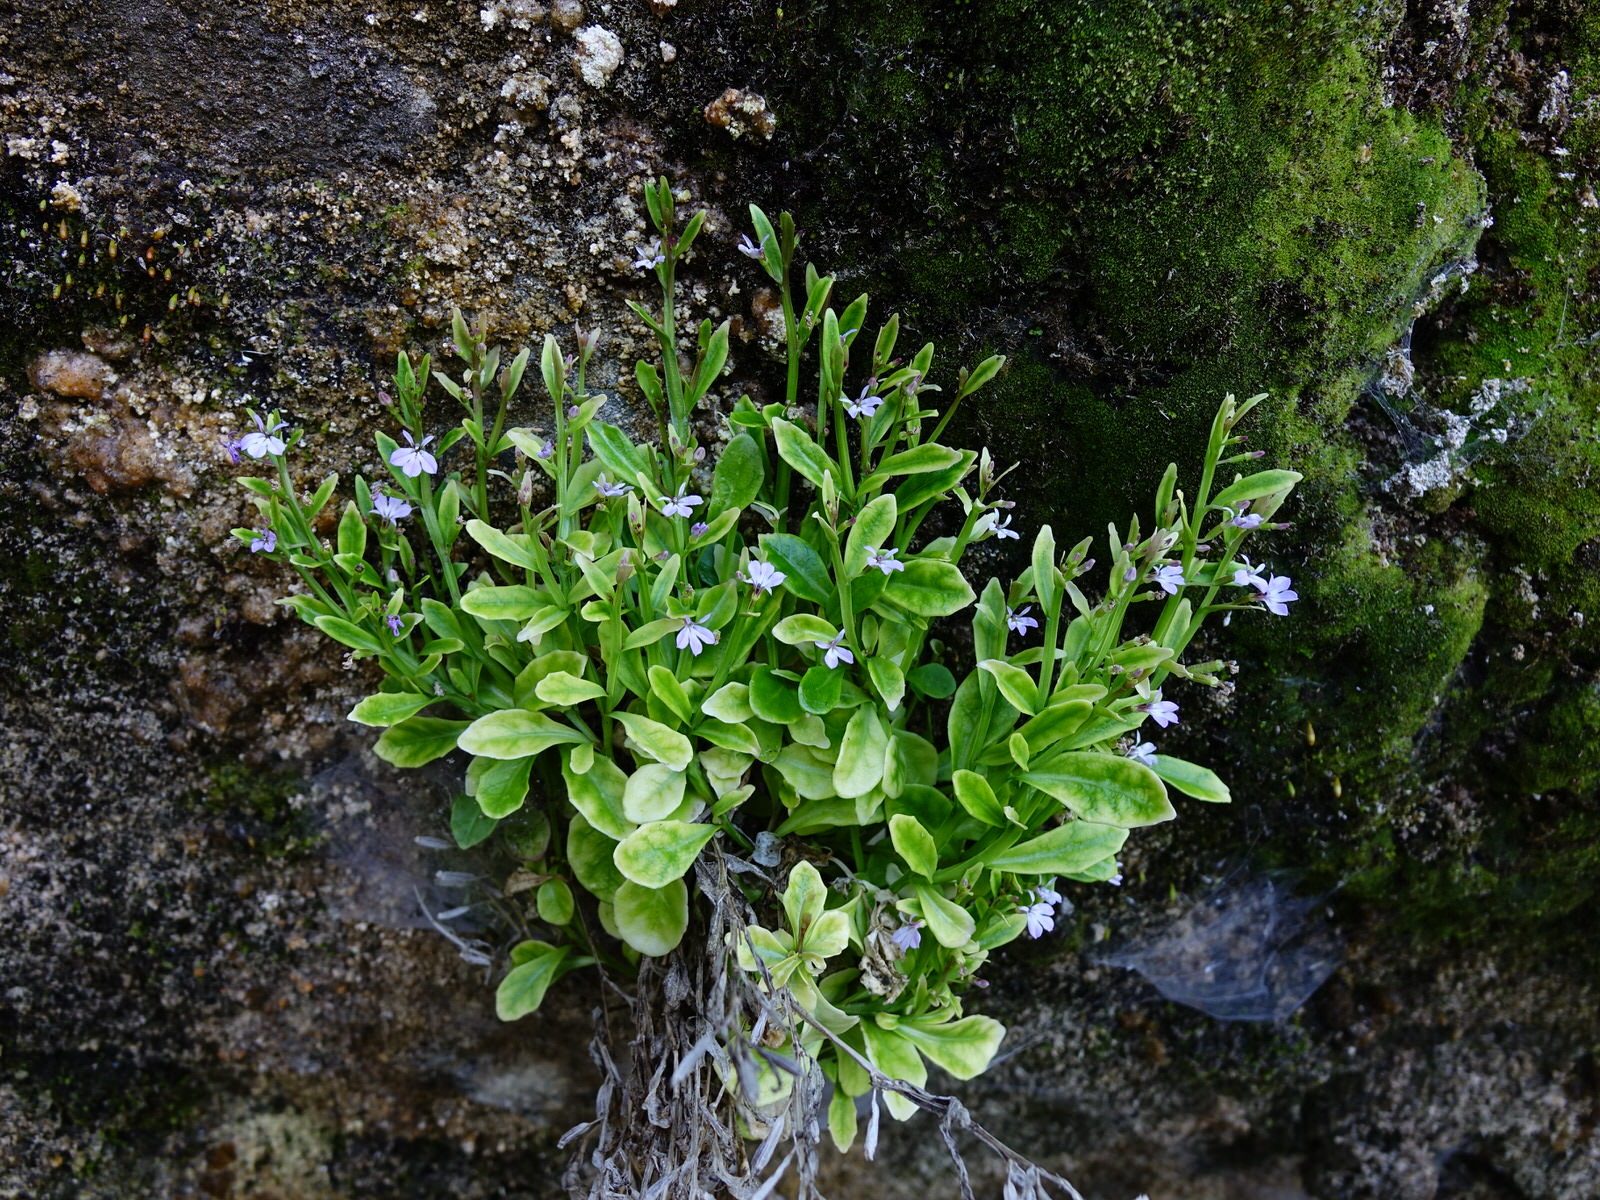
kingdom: Plantae
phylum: Tracheophyta
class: Magnoliopsida
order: Asterales
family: Campanulaceae
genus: Lobelia
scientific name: Lobelia anceps
